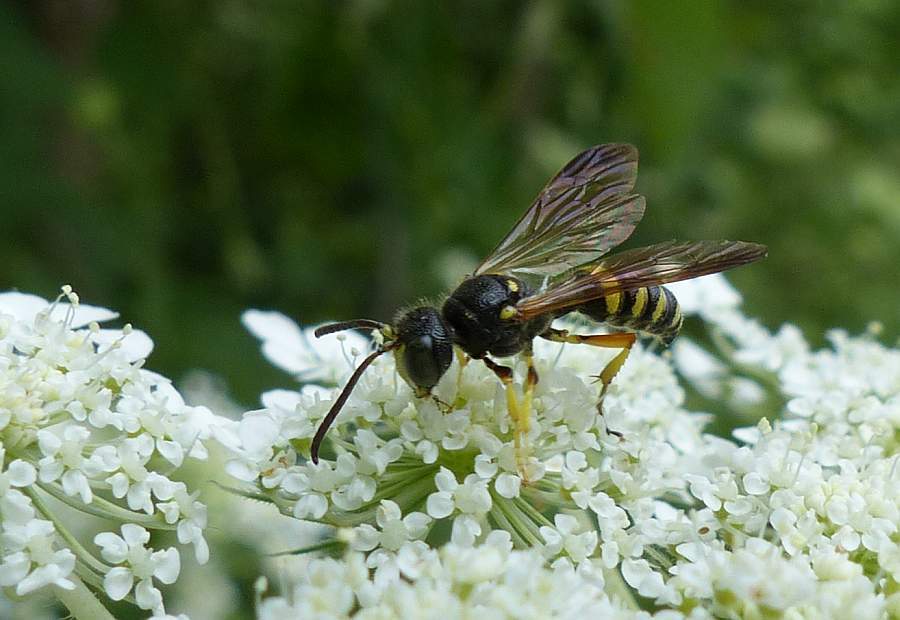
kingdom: Animalia
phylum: Arthropoda
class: Insecta
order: Hymenoptera
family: Crabronidae
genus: Cerceris
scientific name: Cerceris rufopicta
